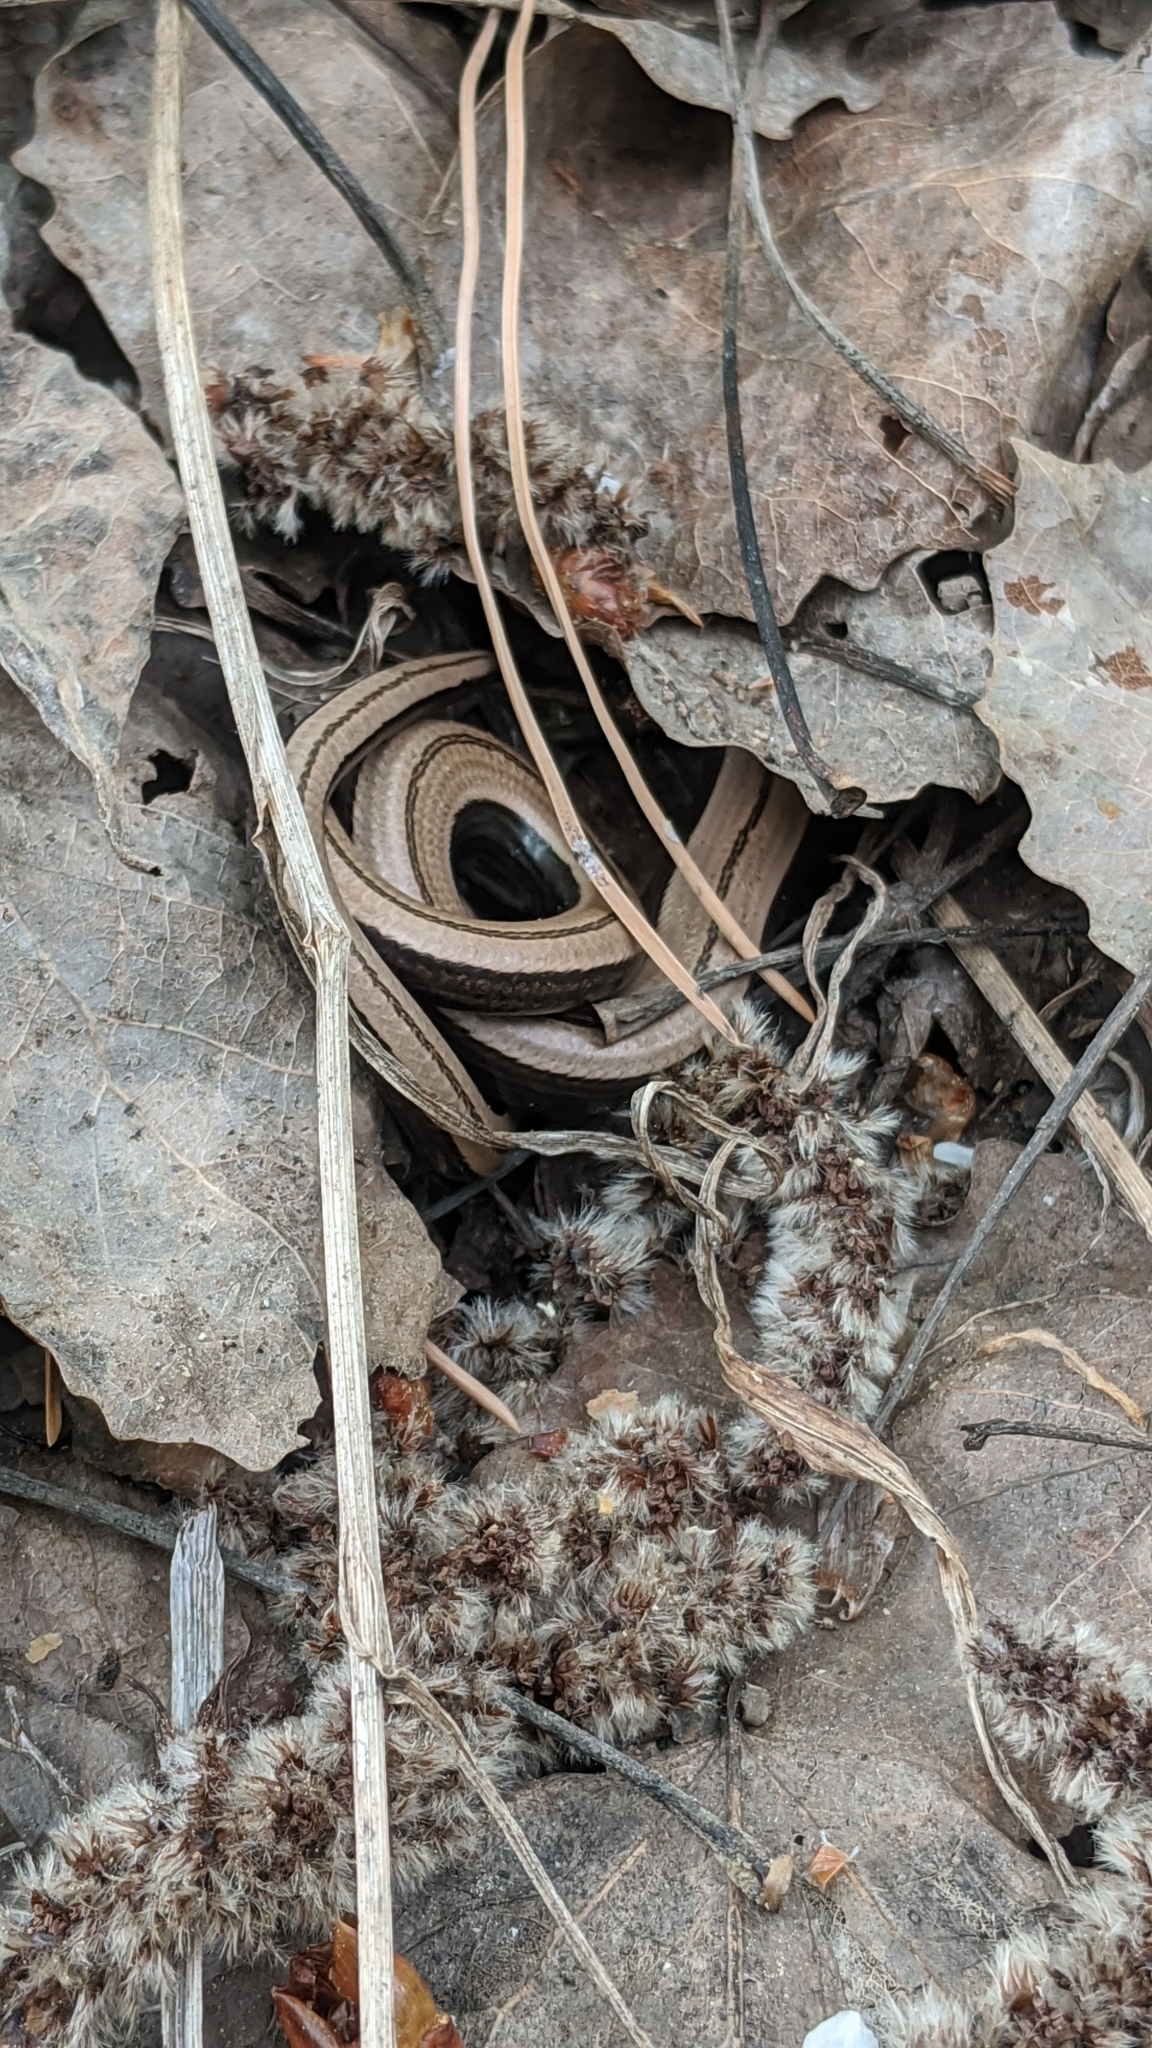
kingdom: Animalia
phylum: Chordata
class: Squamata
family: Anguidae
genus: Anguis
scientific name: Anguis colchica
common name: Slow worm
